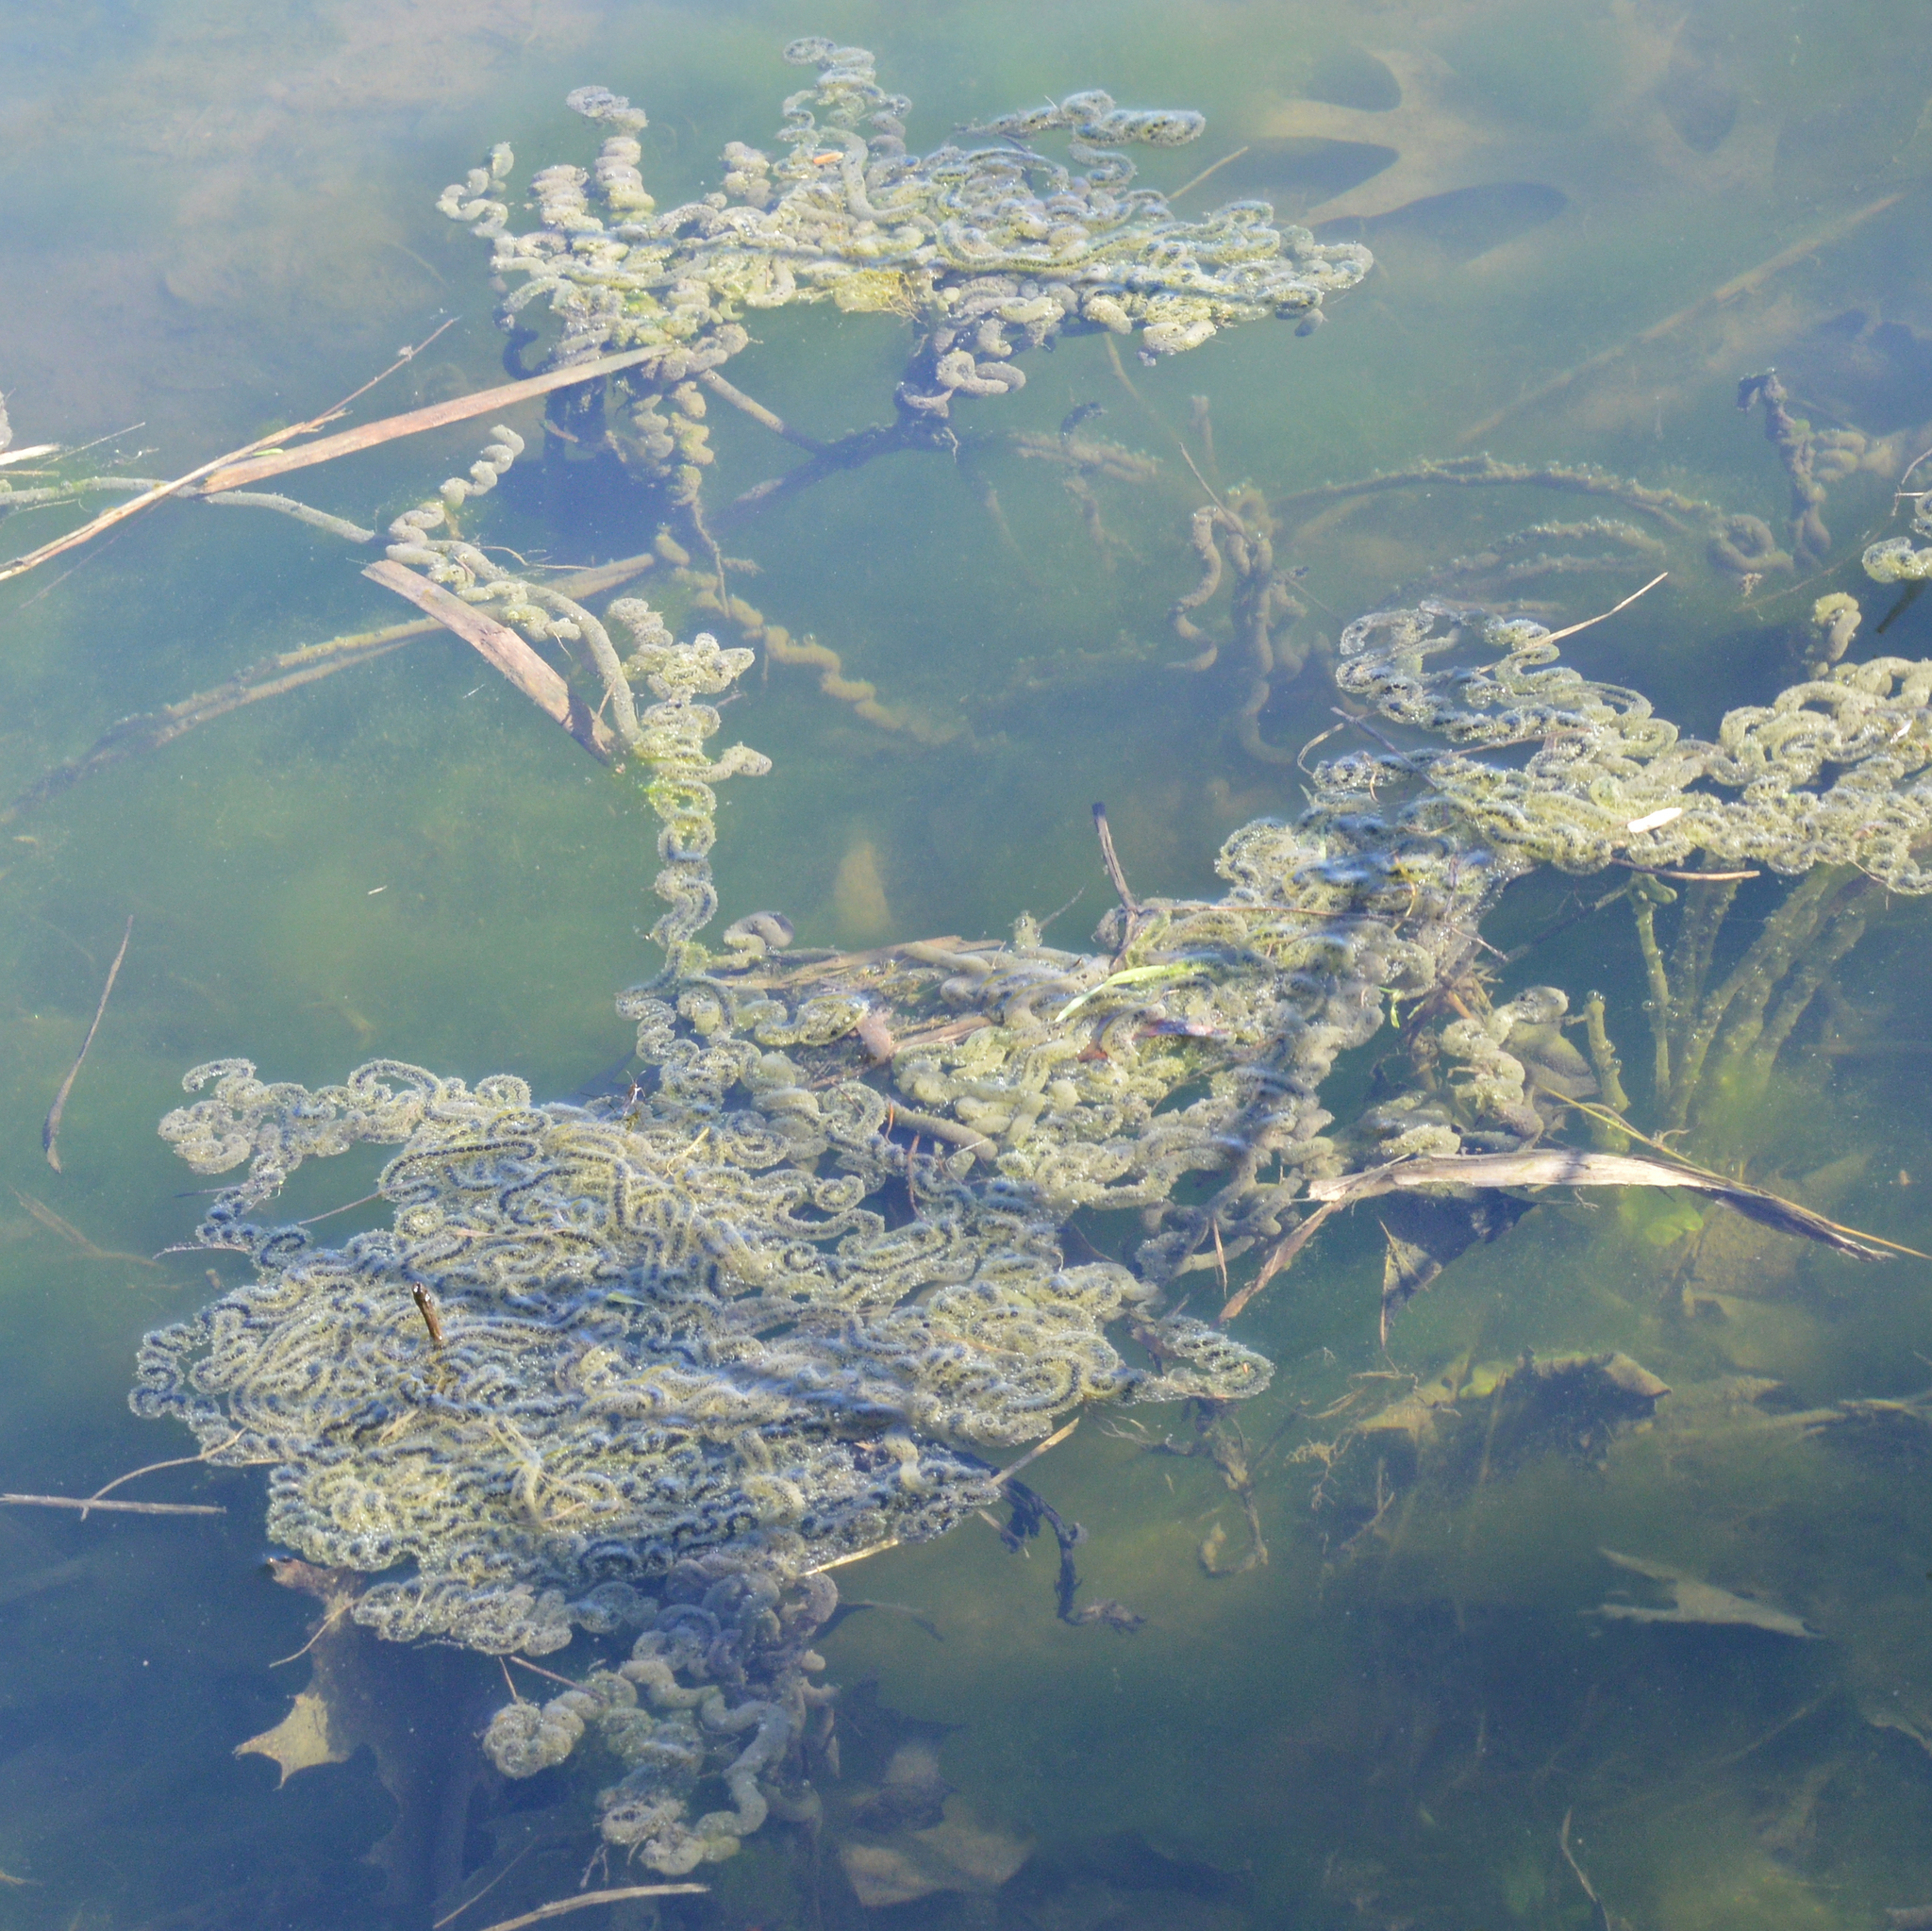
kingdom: Animalia
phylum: Chordata
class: Amphibia
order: Anura
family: Bufonidae
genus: Anaxyrus
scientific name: Anaxyrus americanus
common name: American toad
